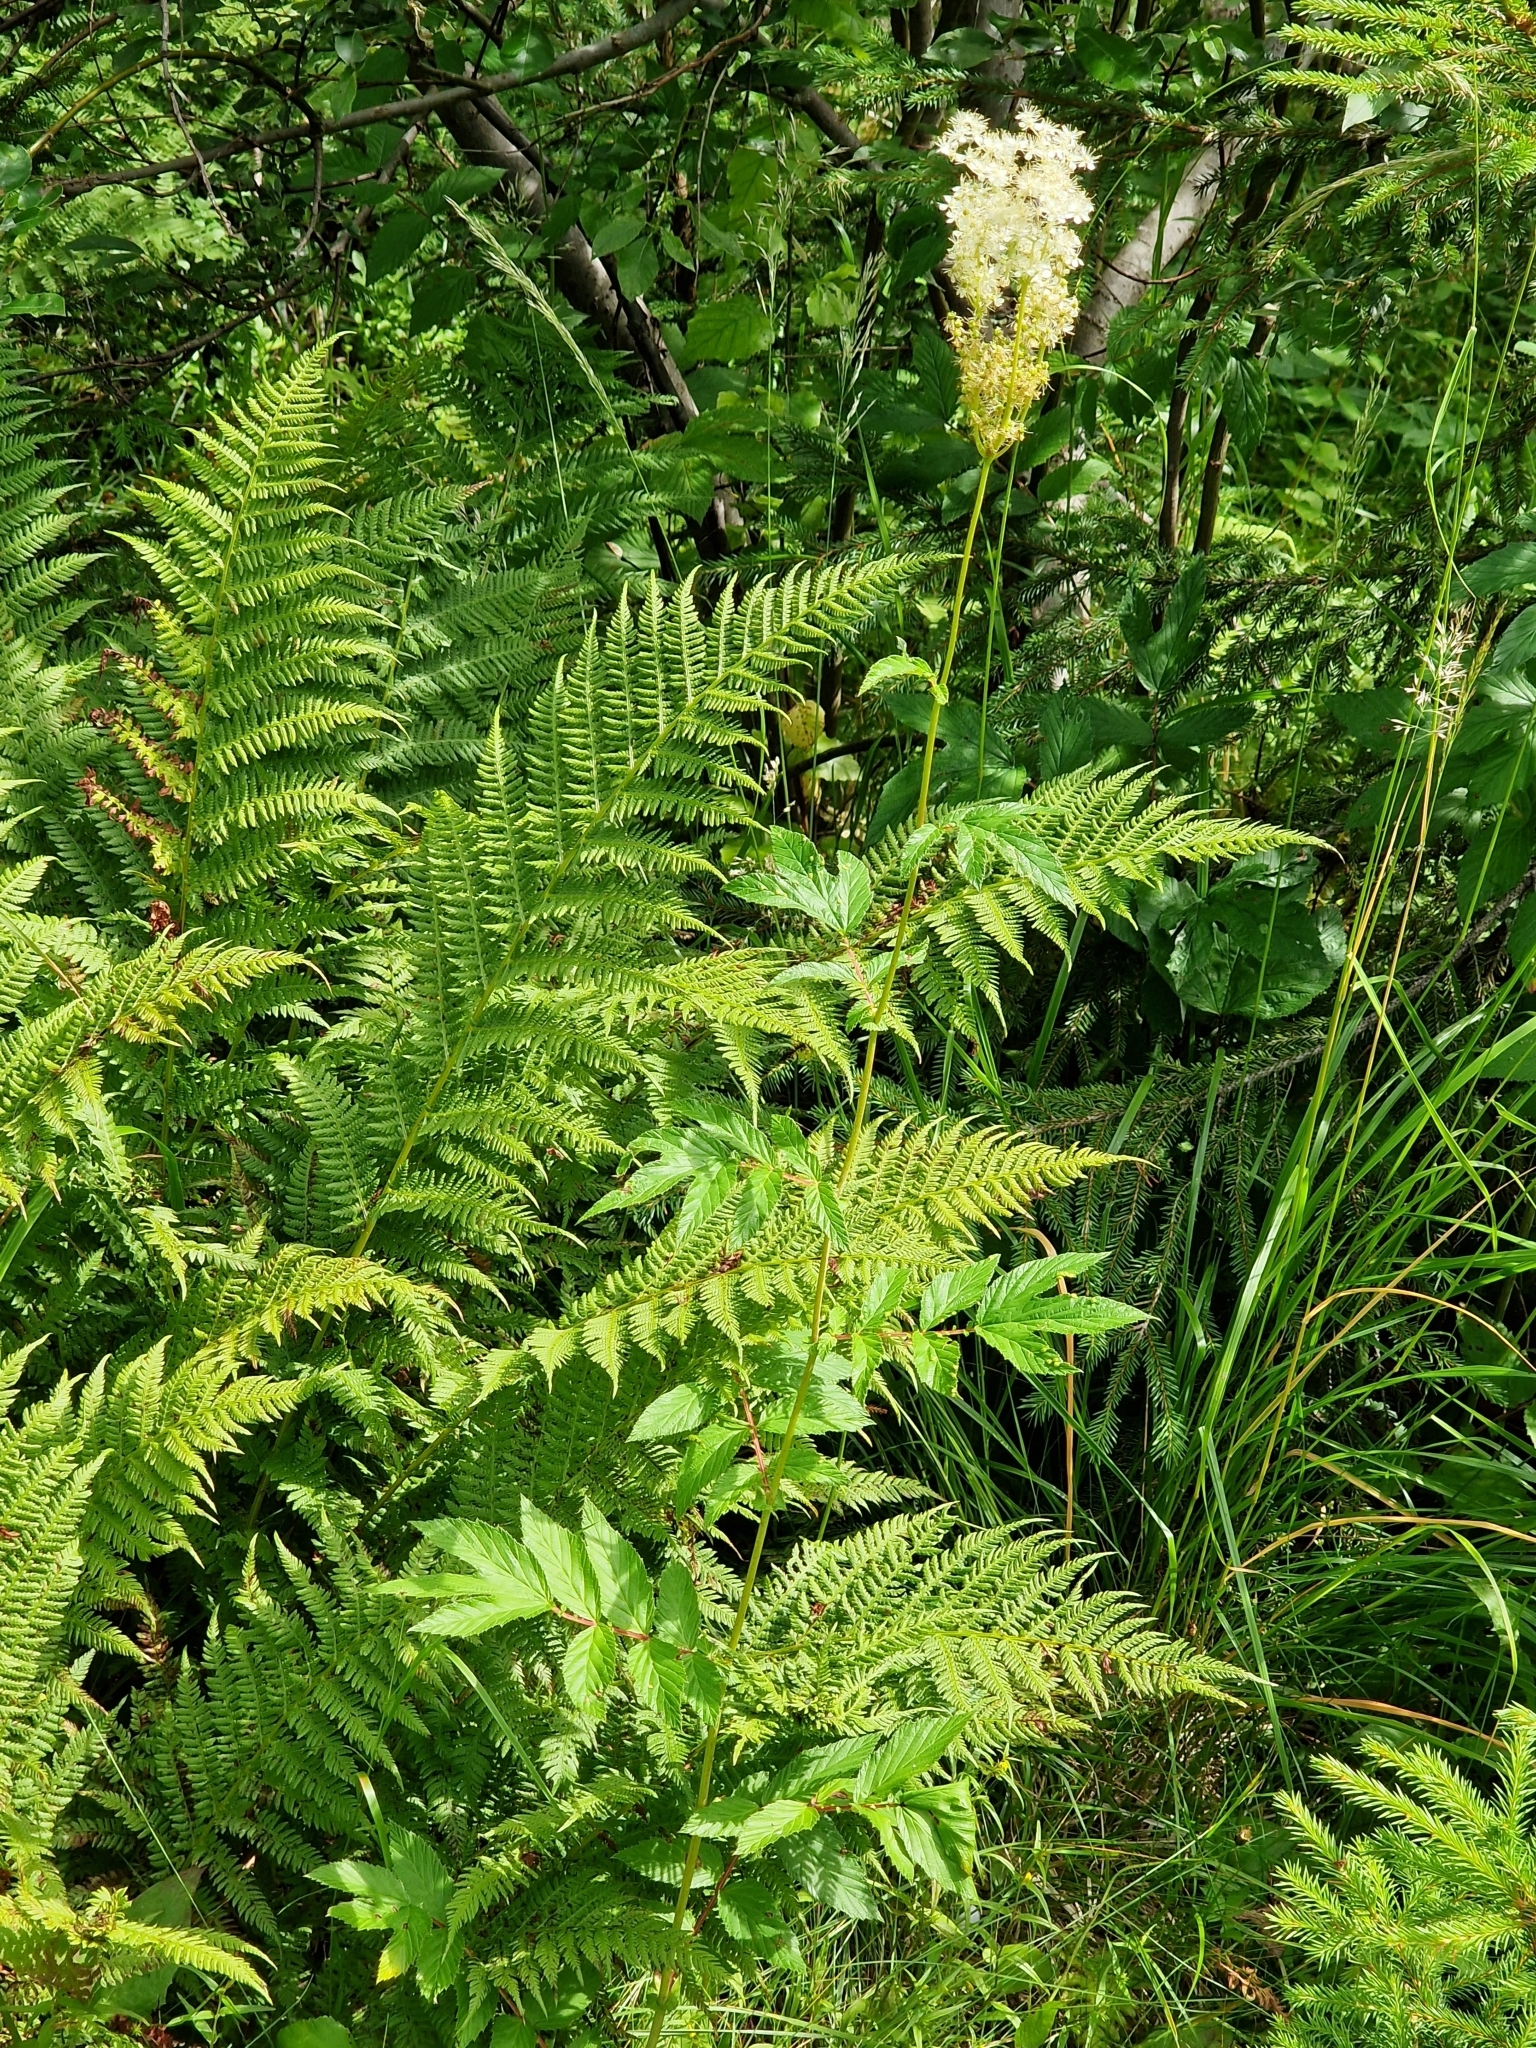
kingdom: Plantae
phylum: Tracheophyta
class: Magnoliopsida
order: Rosales
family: Rosaceae
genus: Filipendula
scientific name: Filipendula ulmaria
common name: Meadowsweet
